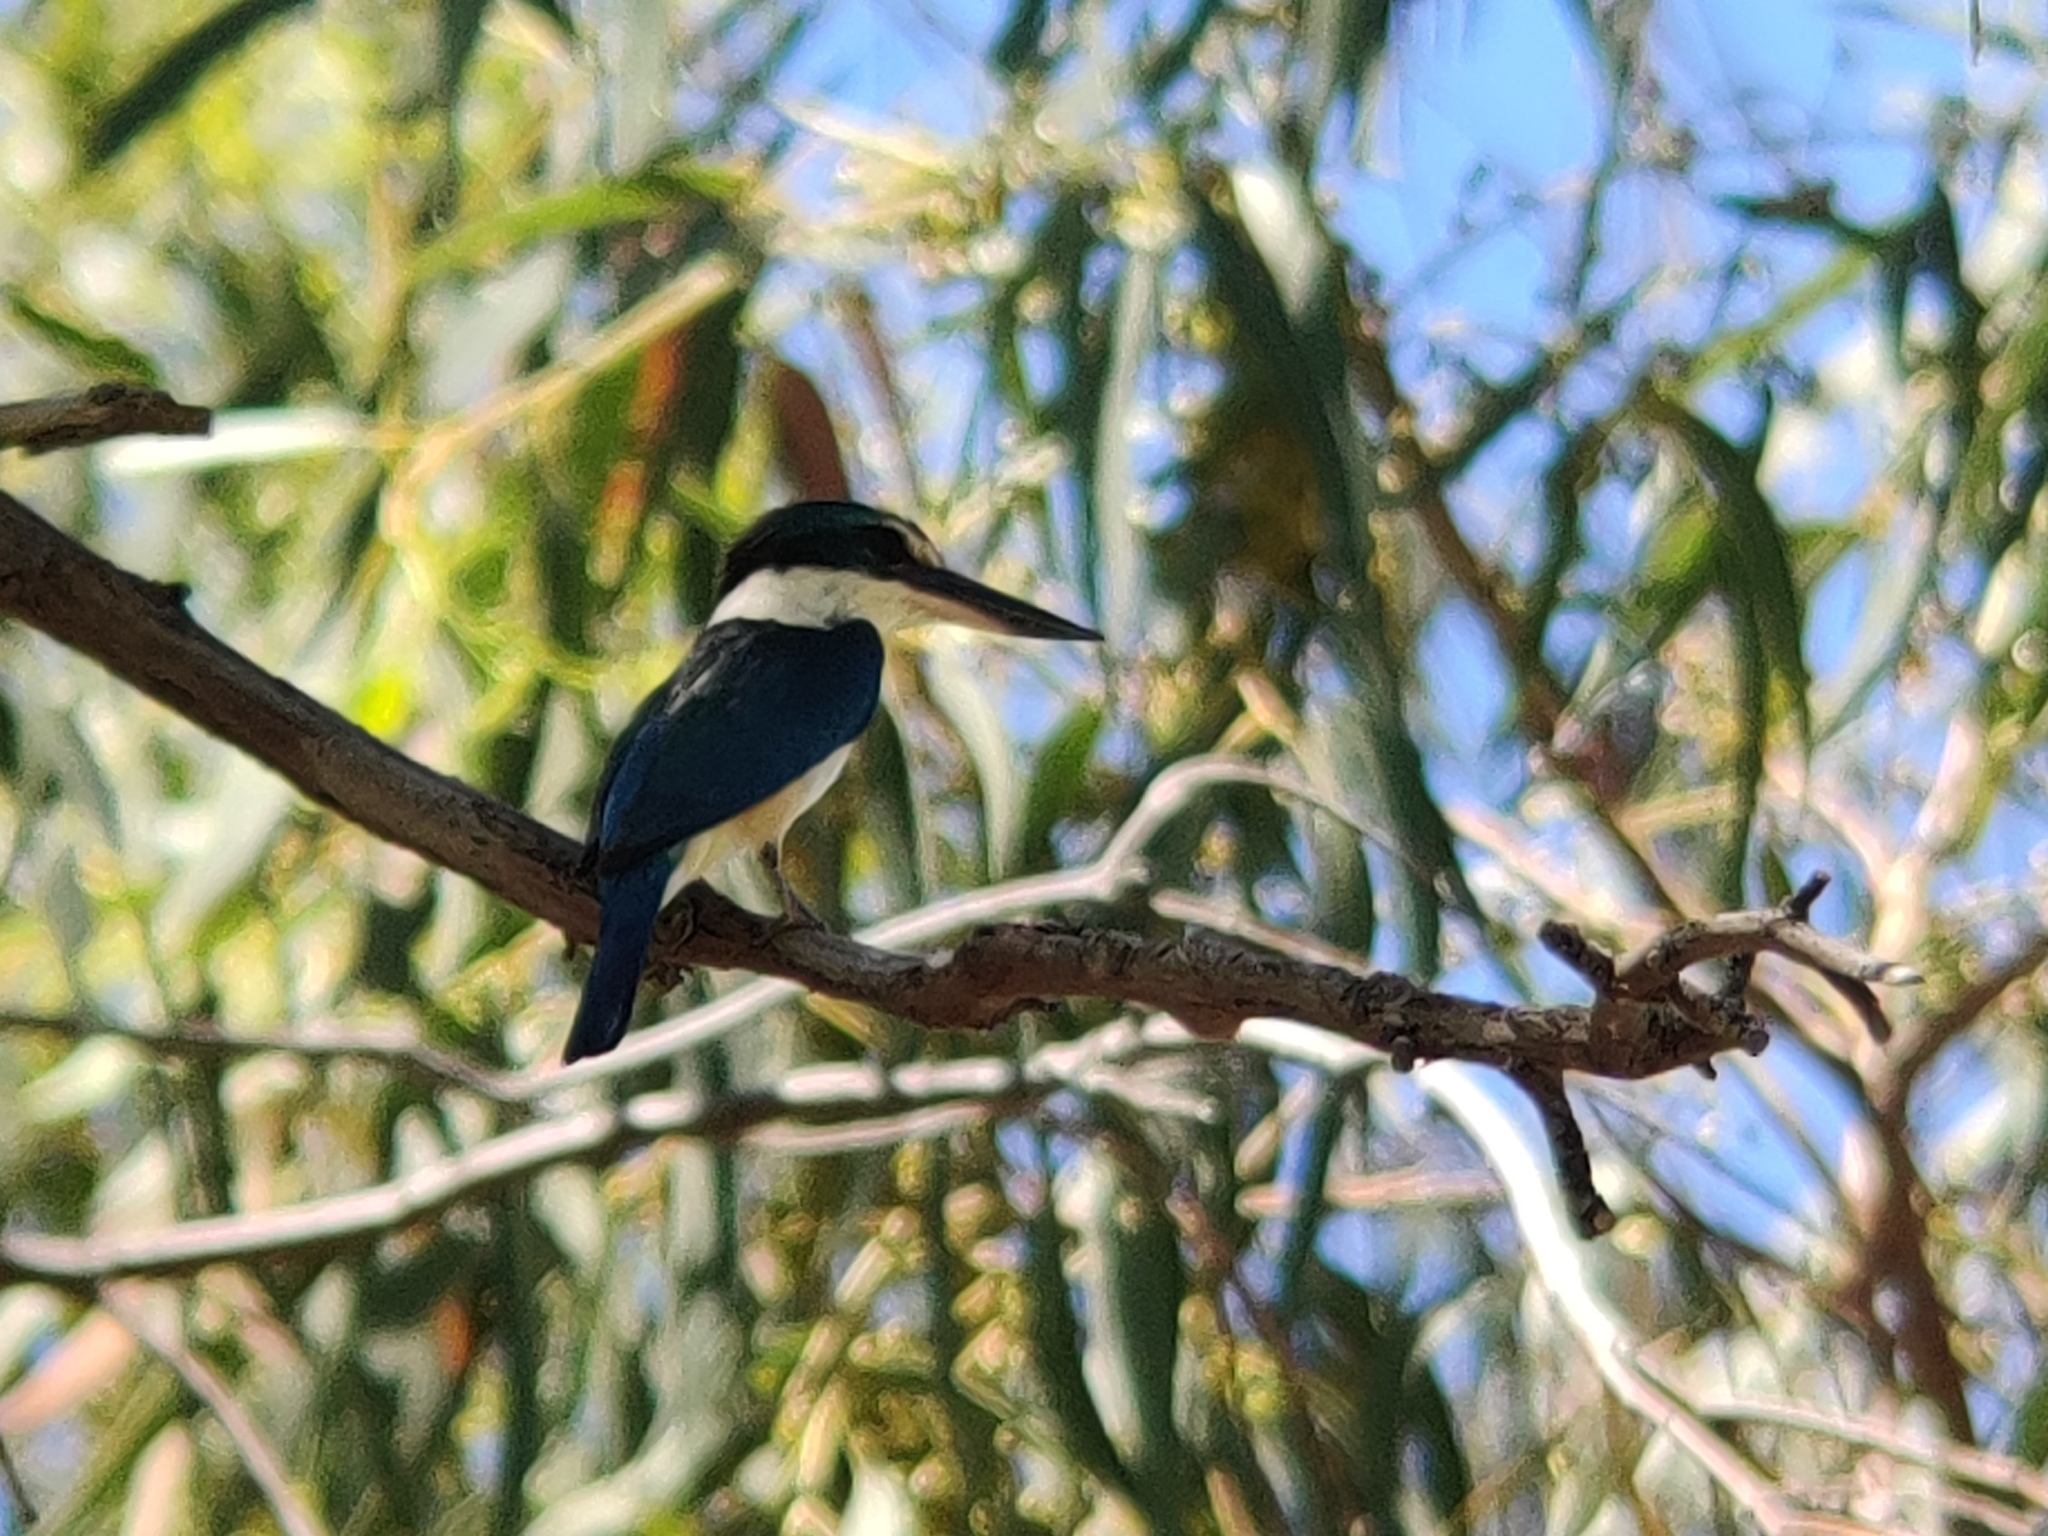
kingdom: Animalia
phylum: Chordata
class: Aves
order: Coraciiformes
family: Alcedinidae
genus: Todiramphus
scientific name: Todiramphus sanctus
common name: Sacred kingfisher
